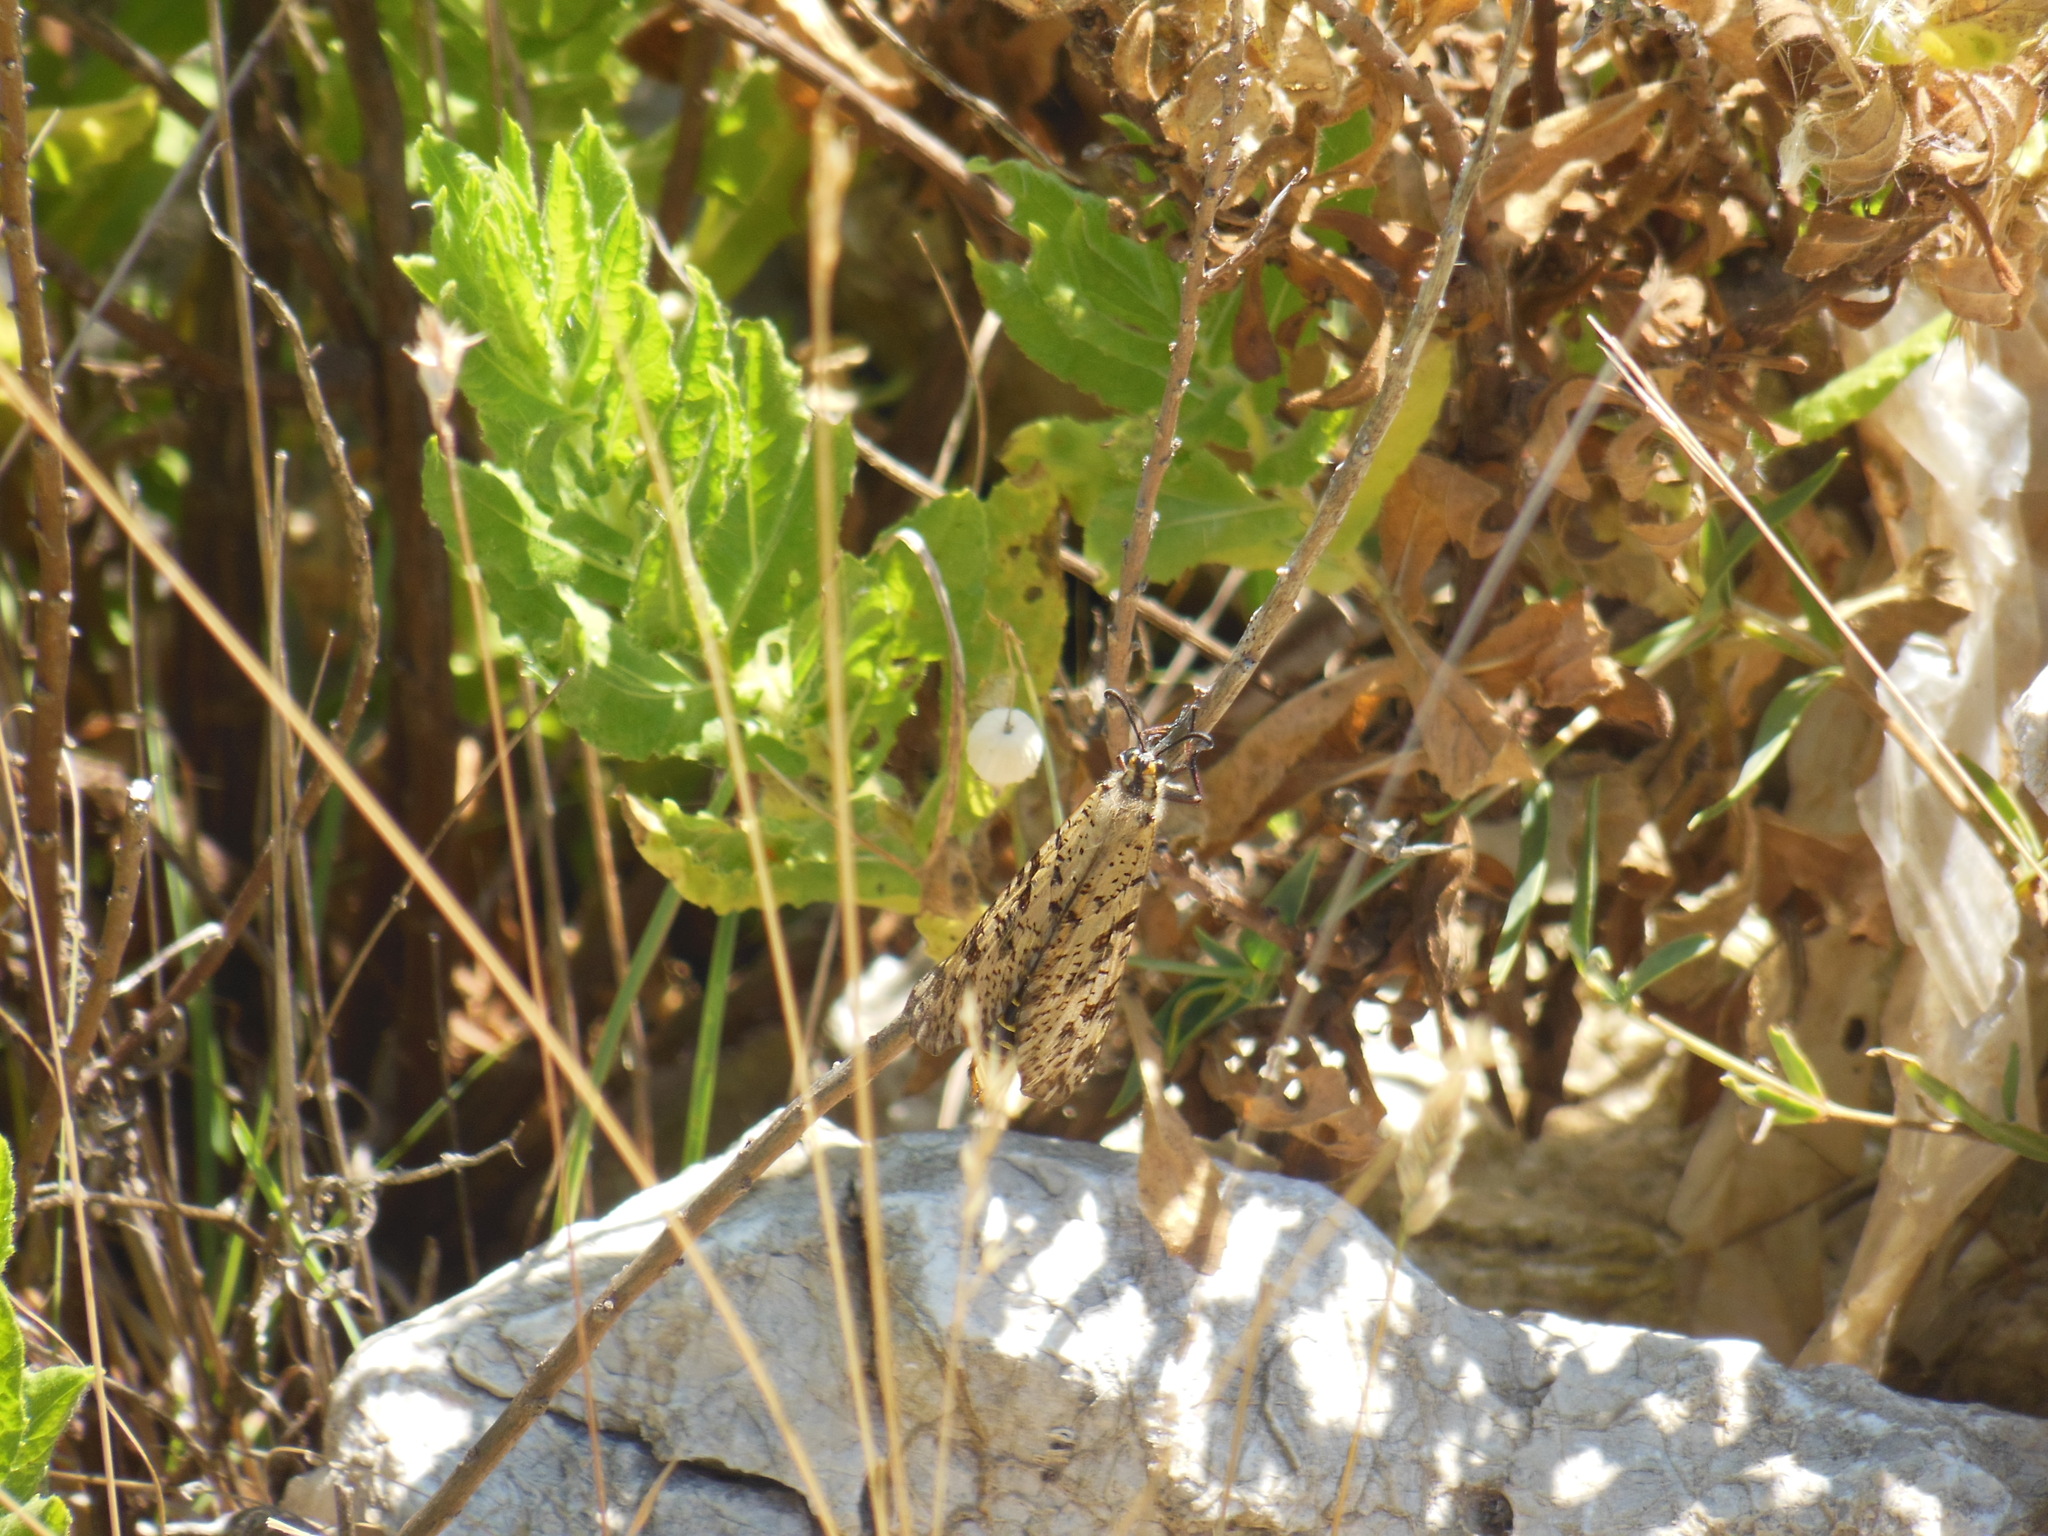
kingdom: Animalia
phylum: Arthropoda
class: Insecta
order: Neuroptera
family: Myrmeleontidae
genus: Palpares
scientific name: Palpares libelluloides
